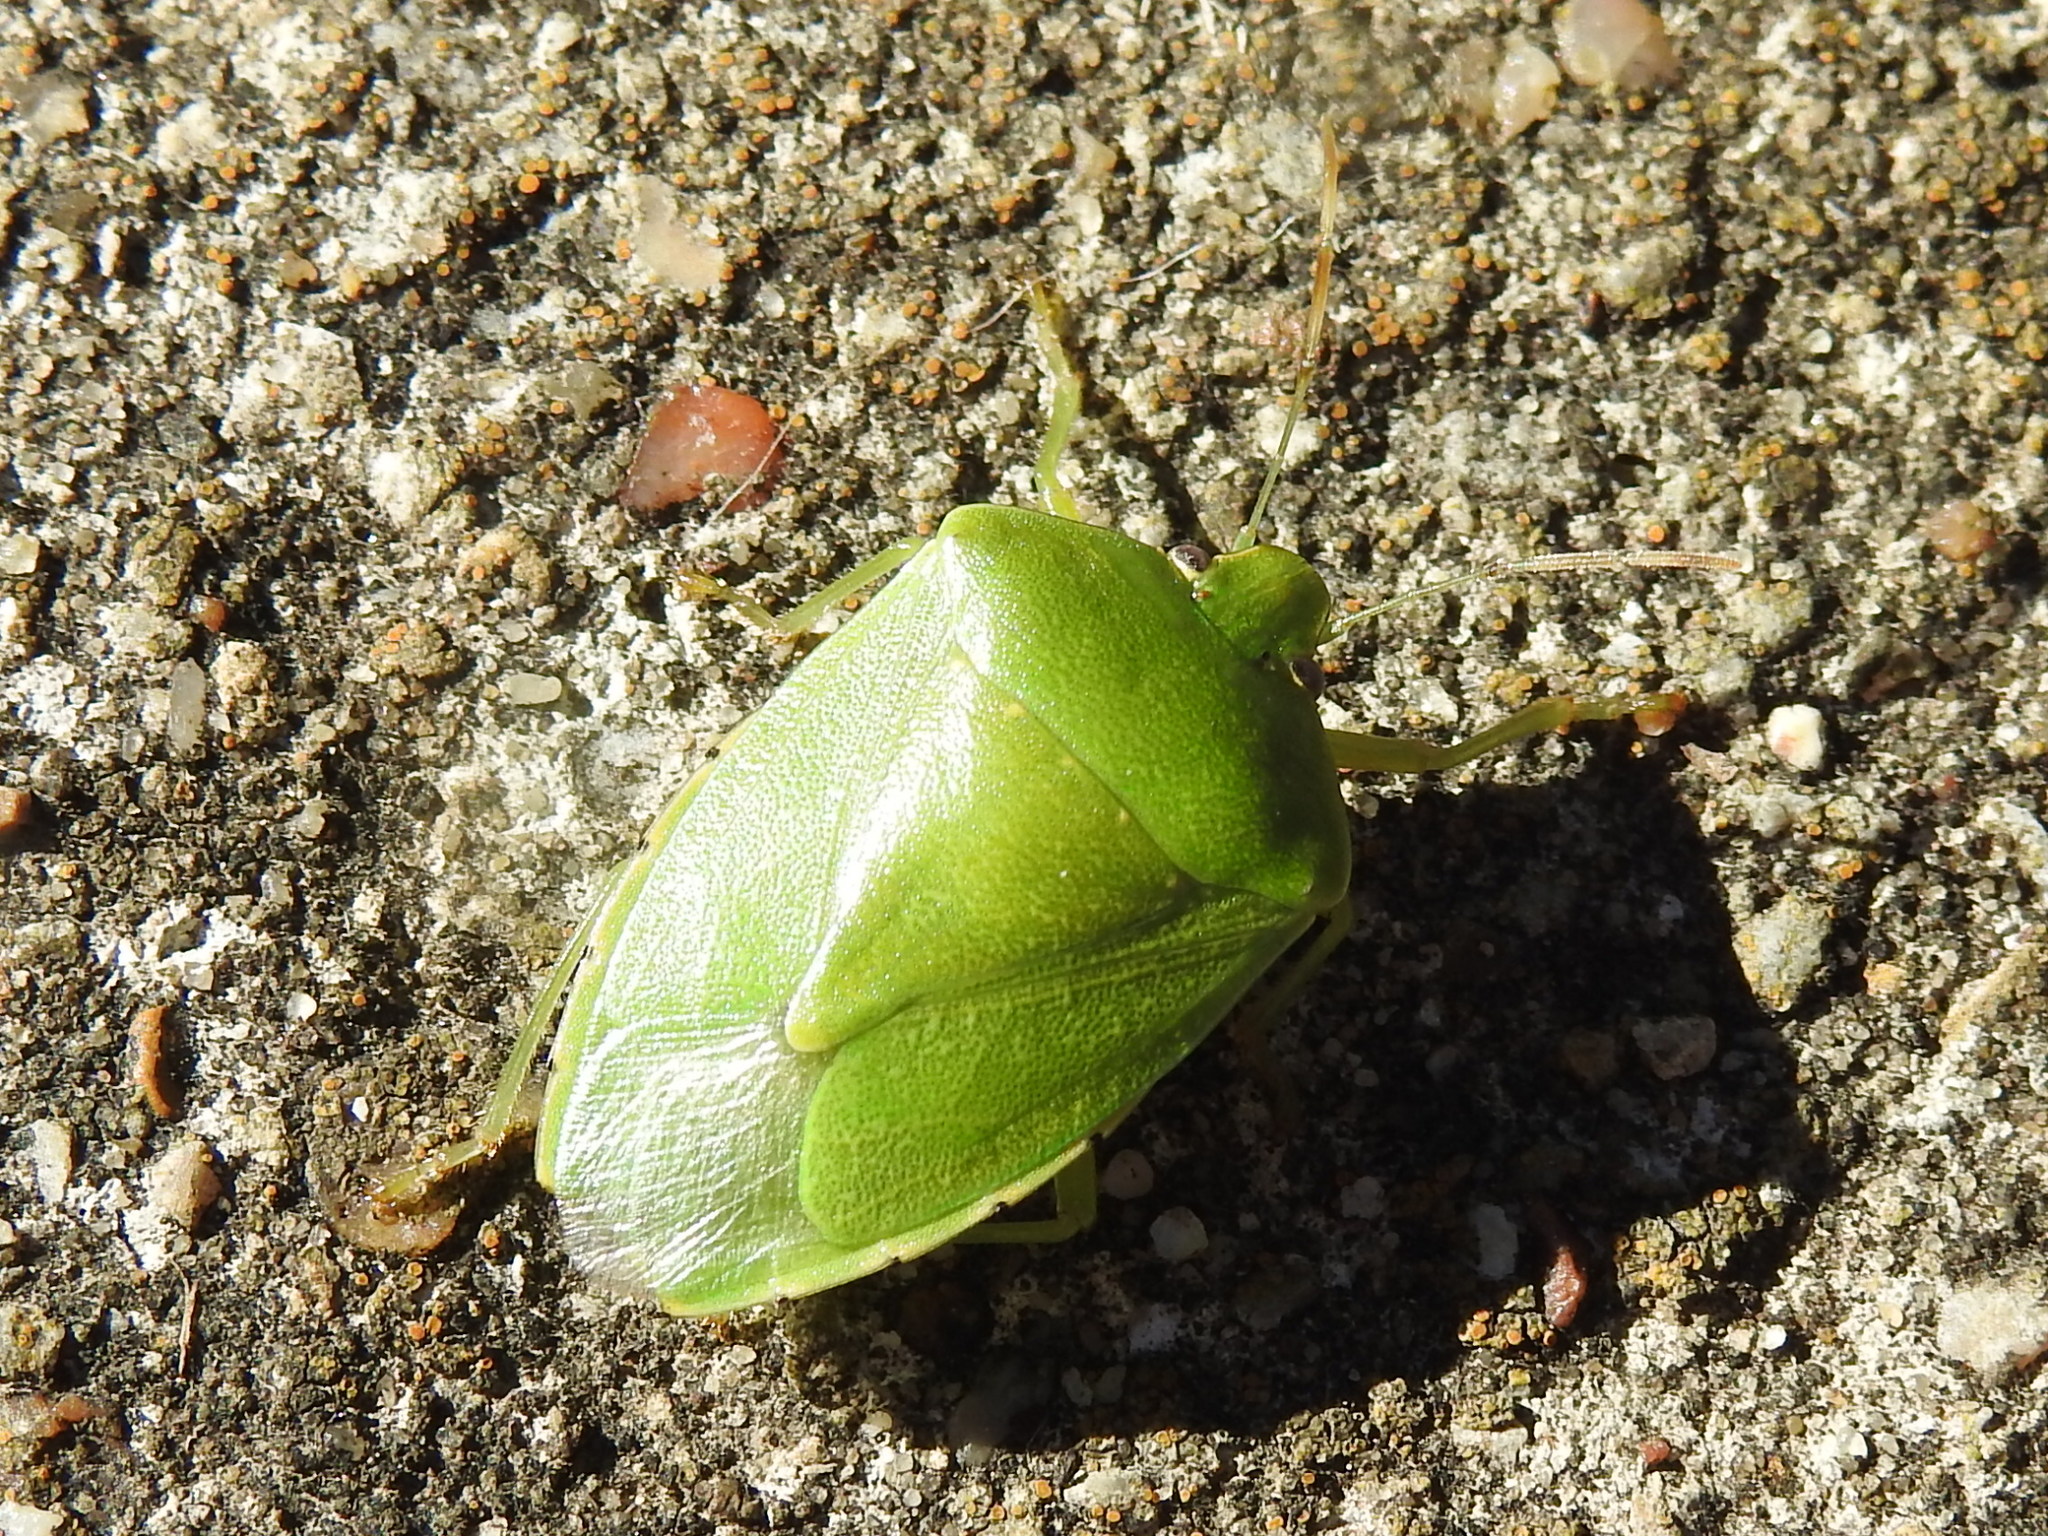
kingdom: Animalia
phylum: Arthropoda
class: Insecta
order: Hemiptera
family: Pentatomidae
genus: Chinavia
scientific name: Chinavia hilaris
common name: Green stink bug
